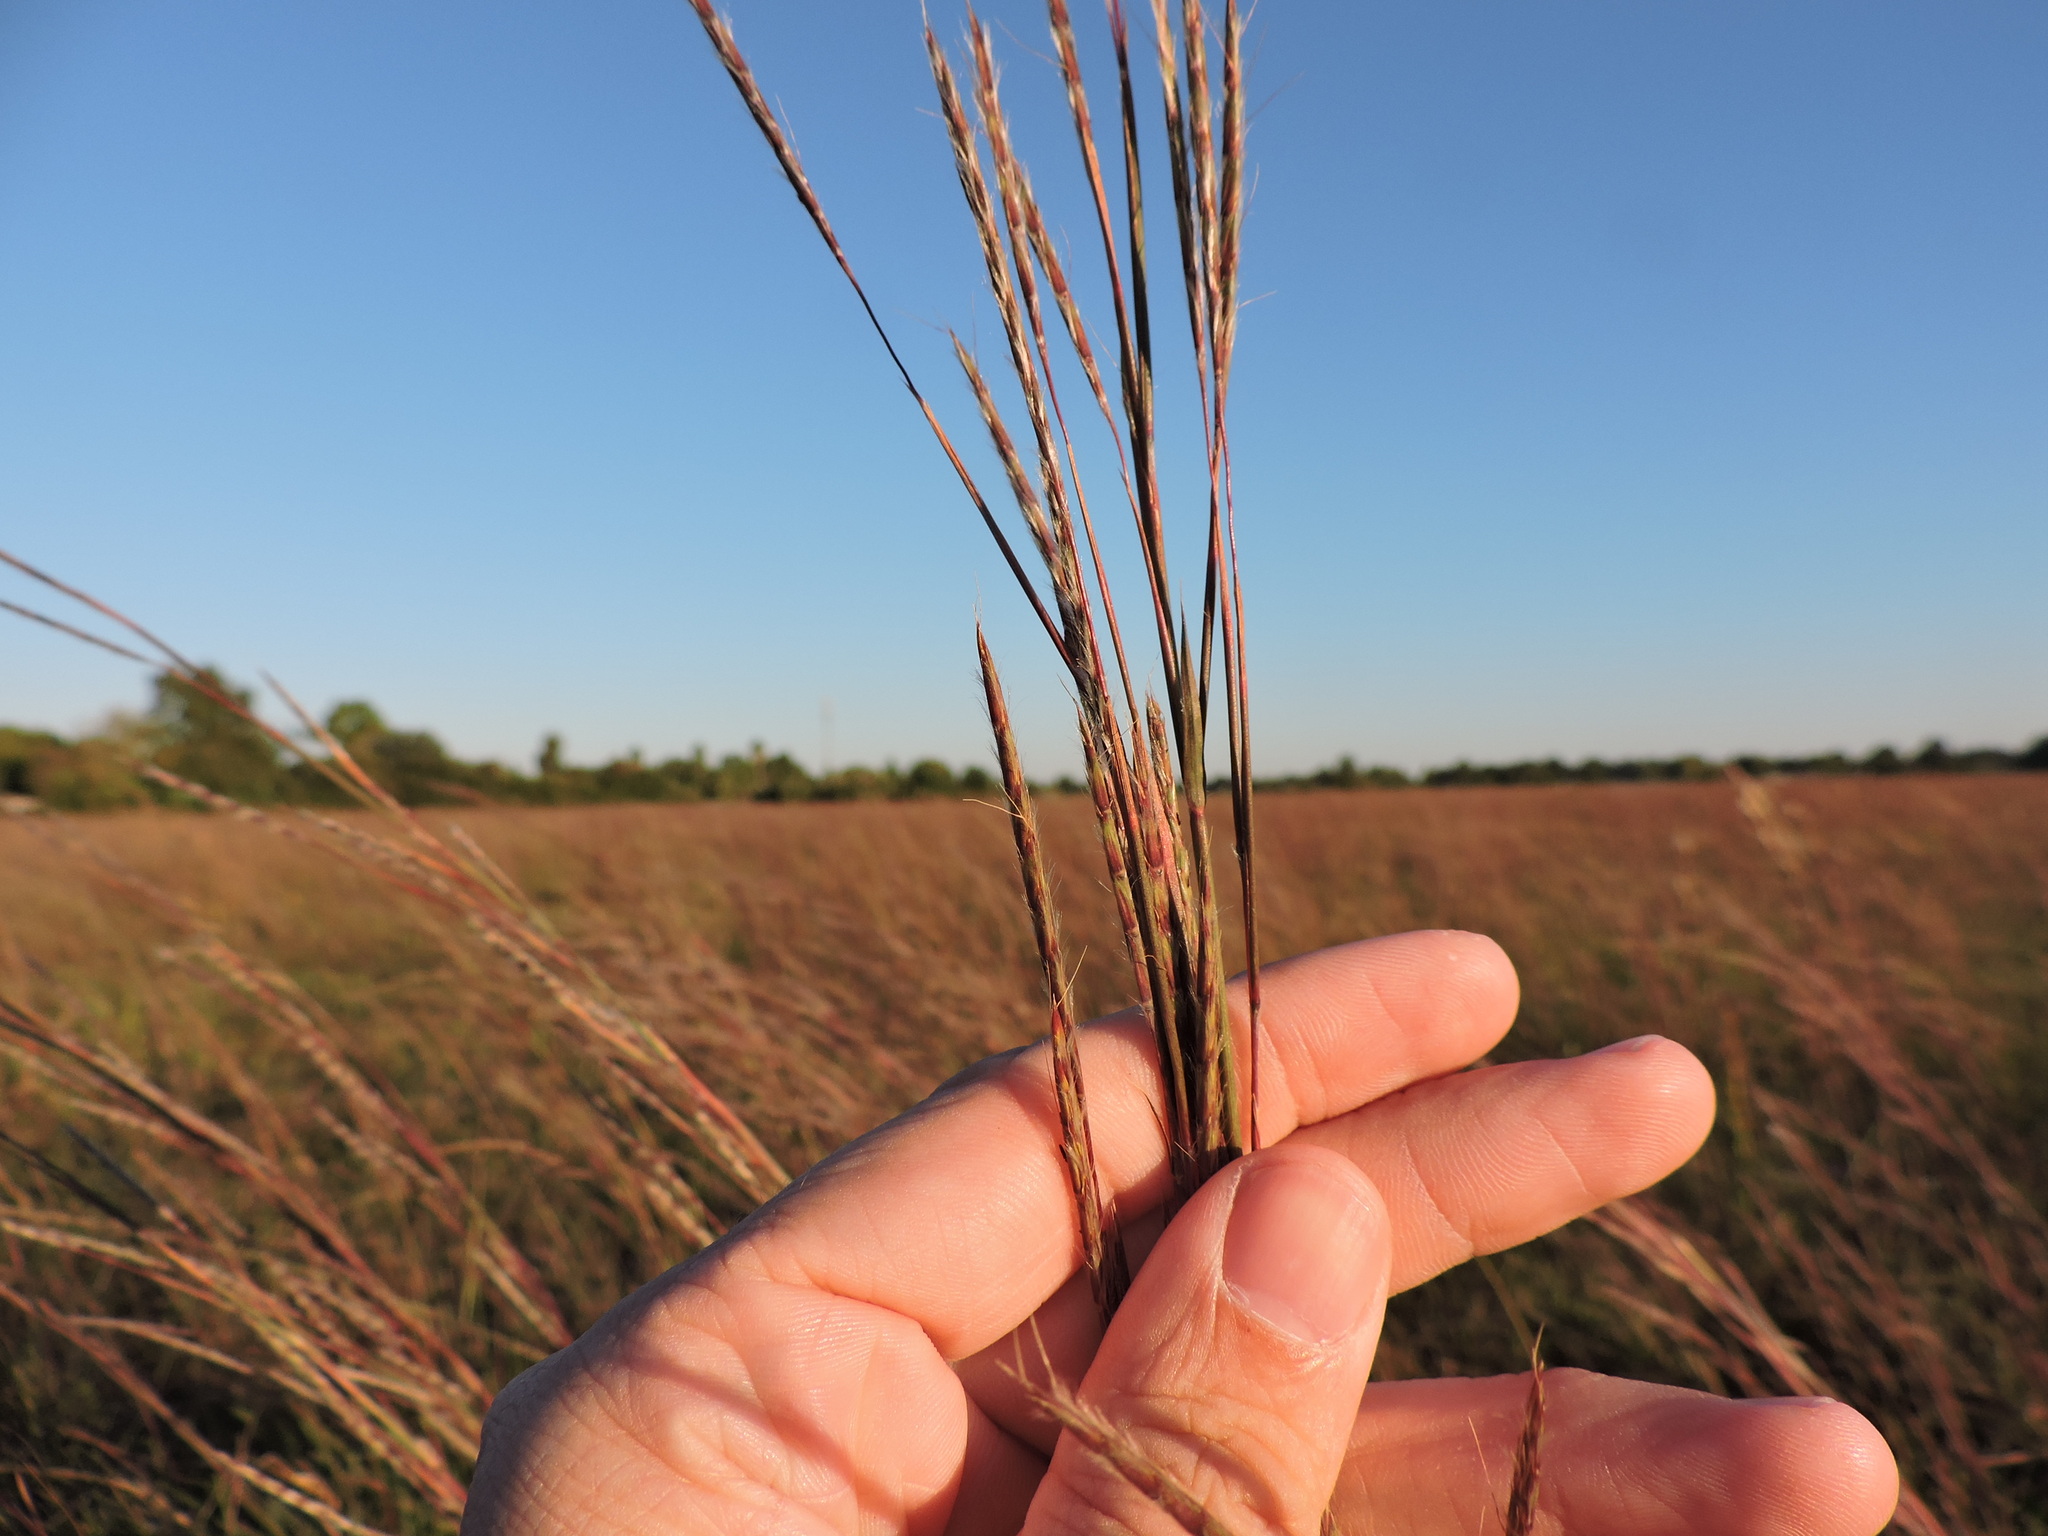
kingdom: Plantae
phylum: Tracheophyta
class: Liliopsida
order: Poales
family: Poaceae
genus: Schizachyrium
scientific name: Schizachyrium scoparium
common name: Little bluestem
